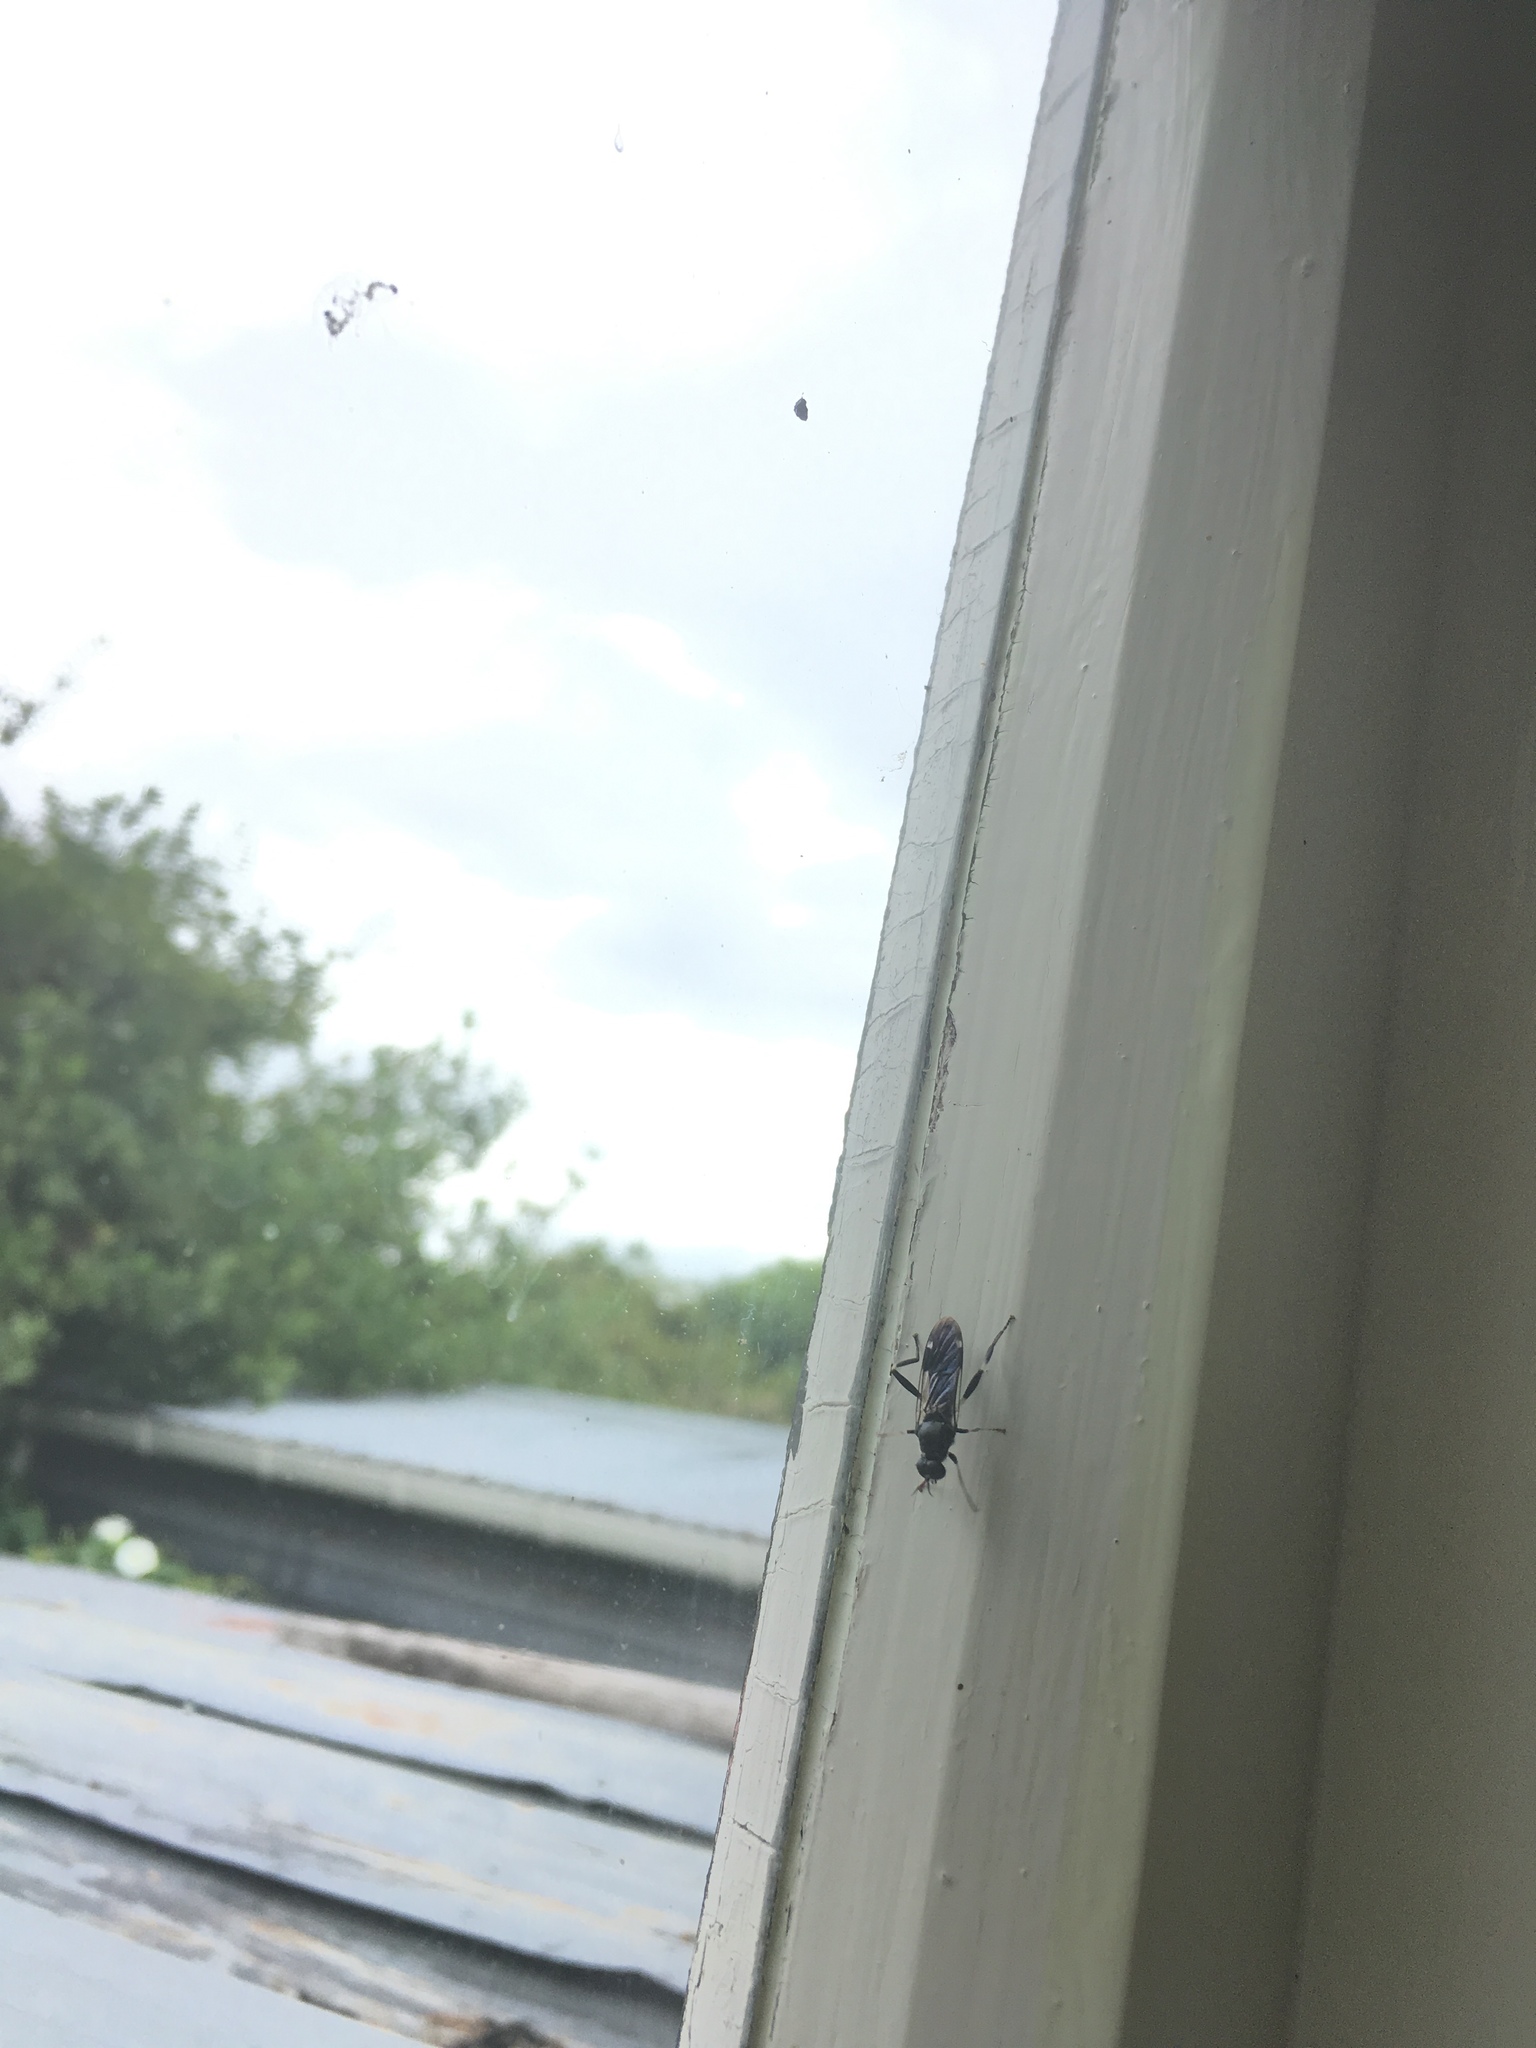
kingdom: Animalia
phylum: Arthropoda
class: Insecta
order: Diptera
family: Stratiomyidae
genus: Exaireta
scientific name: Exaireta spinigera
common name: Blue soldier fly
